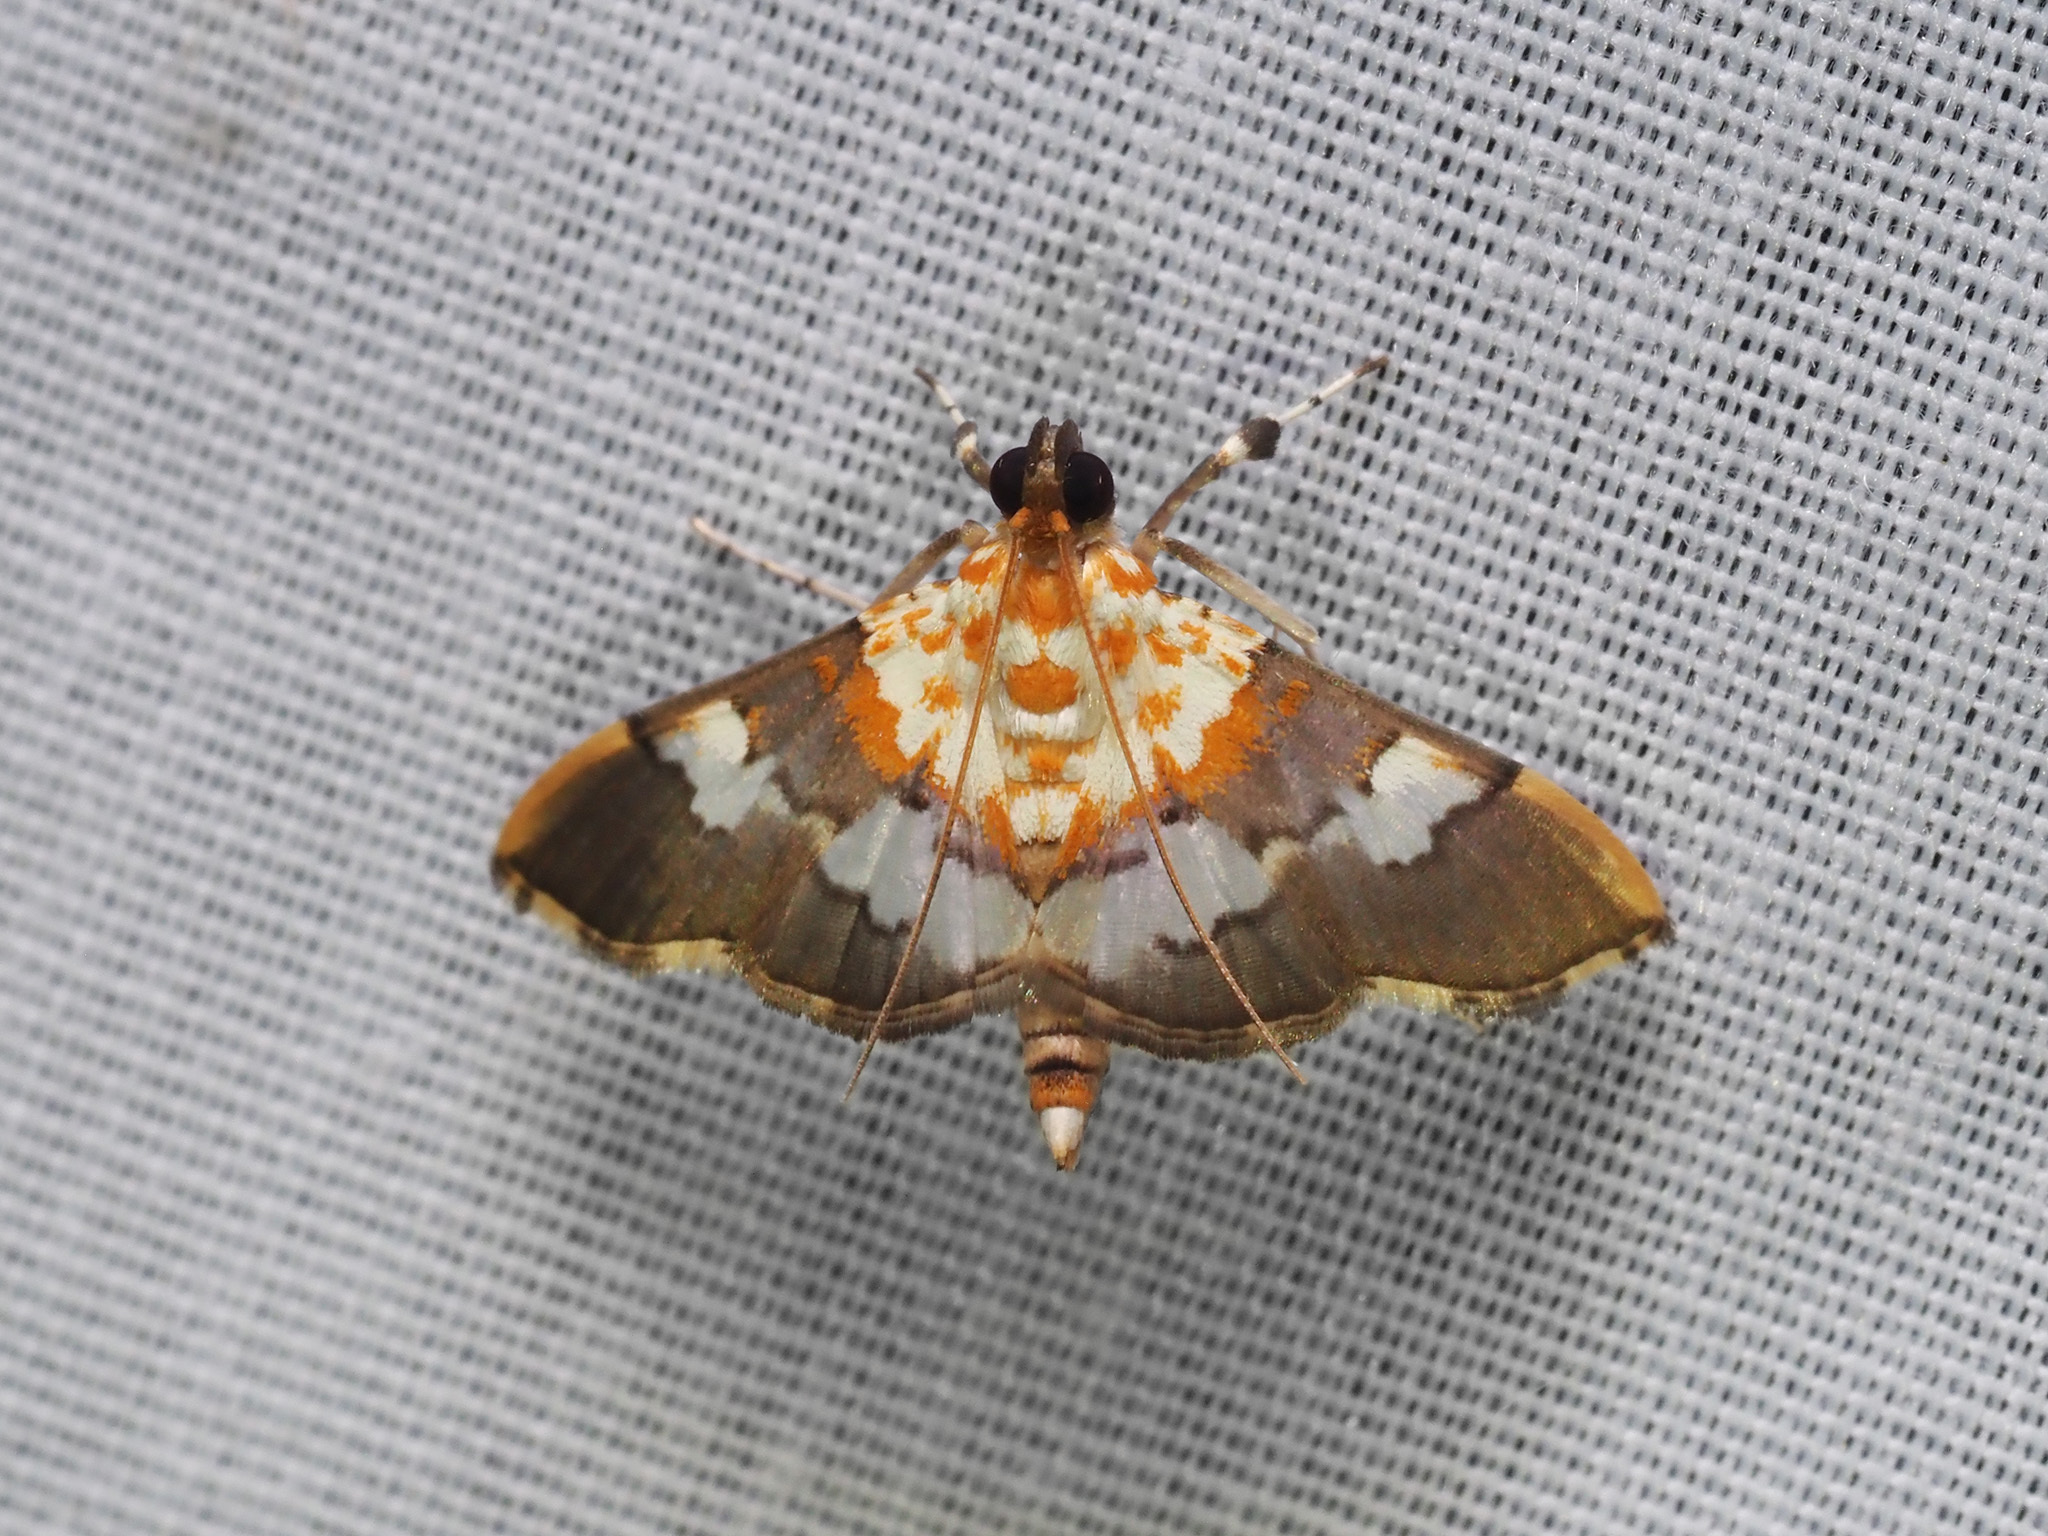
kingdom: Animalia
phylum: Arthropoda
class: Insecta
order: Lepidoptera
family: Crambidae
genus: Aetholix
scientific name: Aetholix flavibasalis
